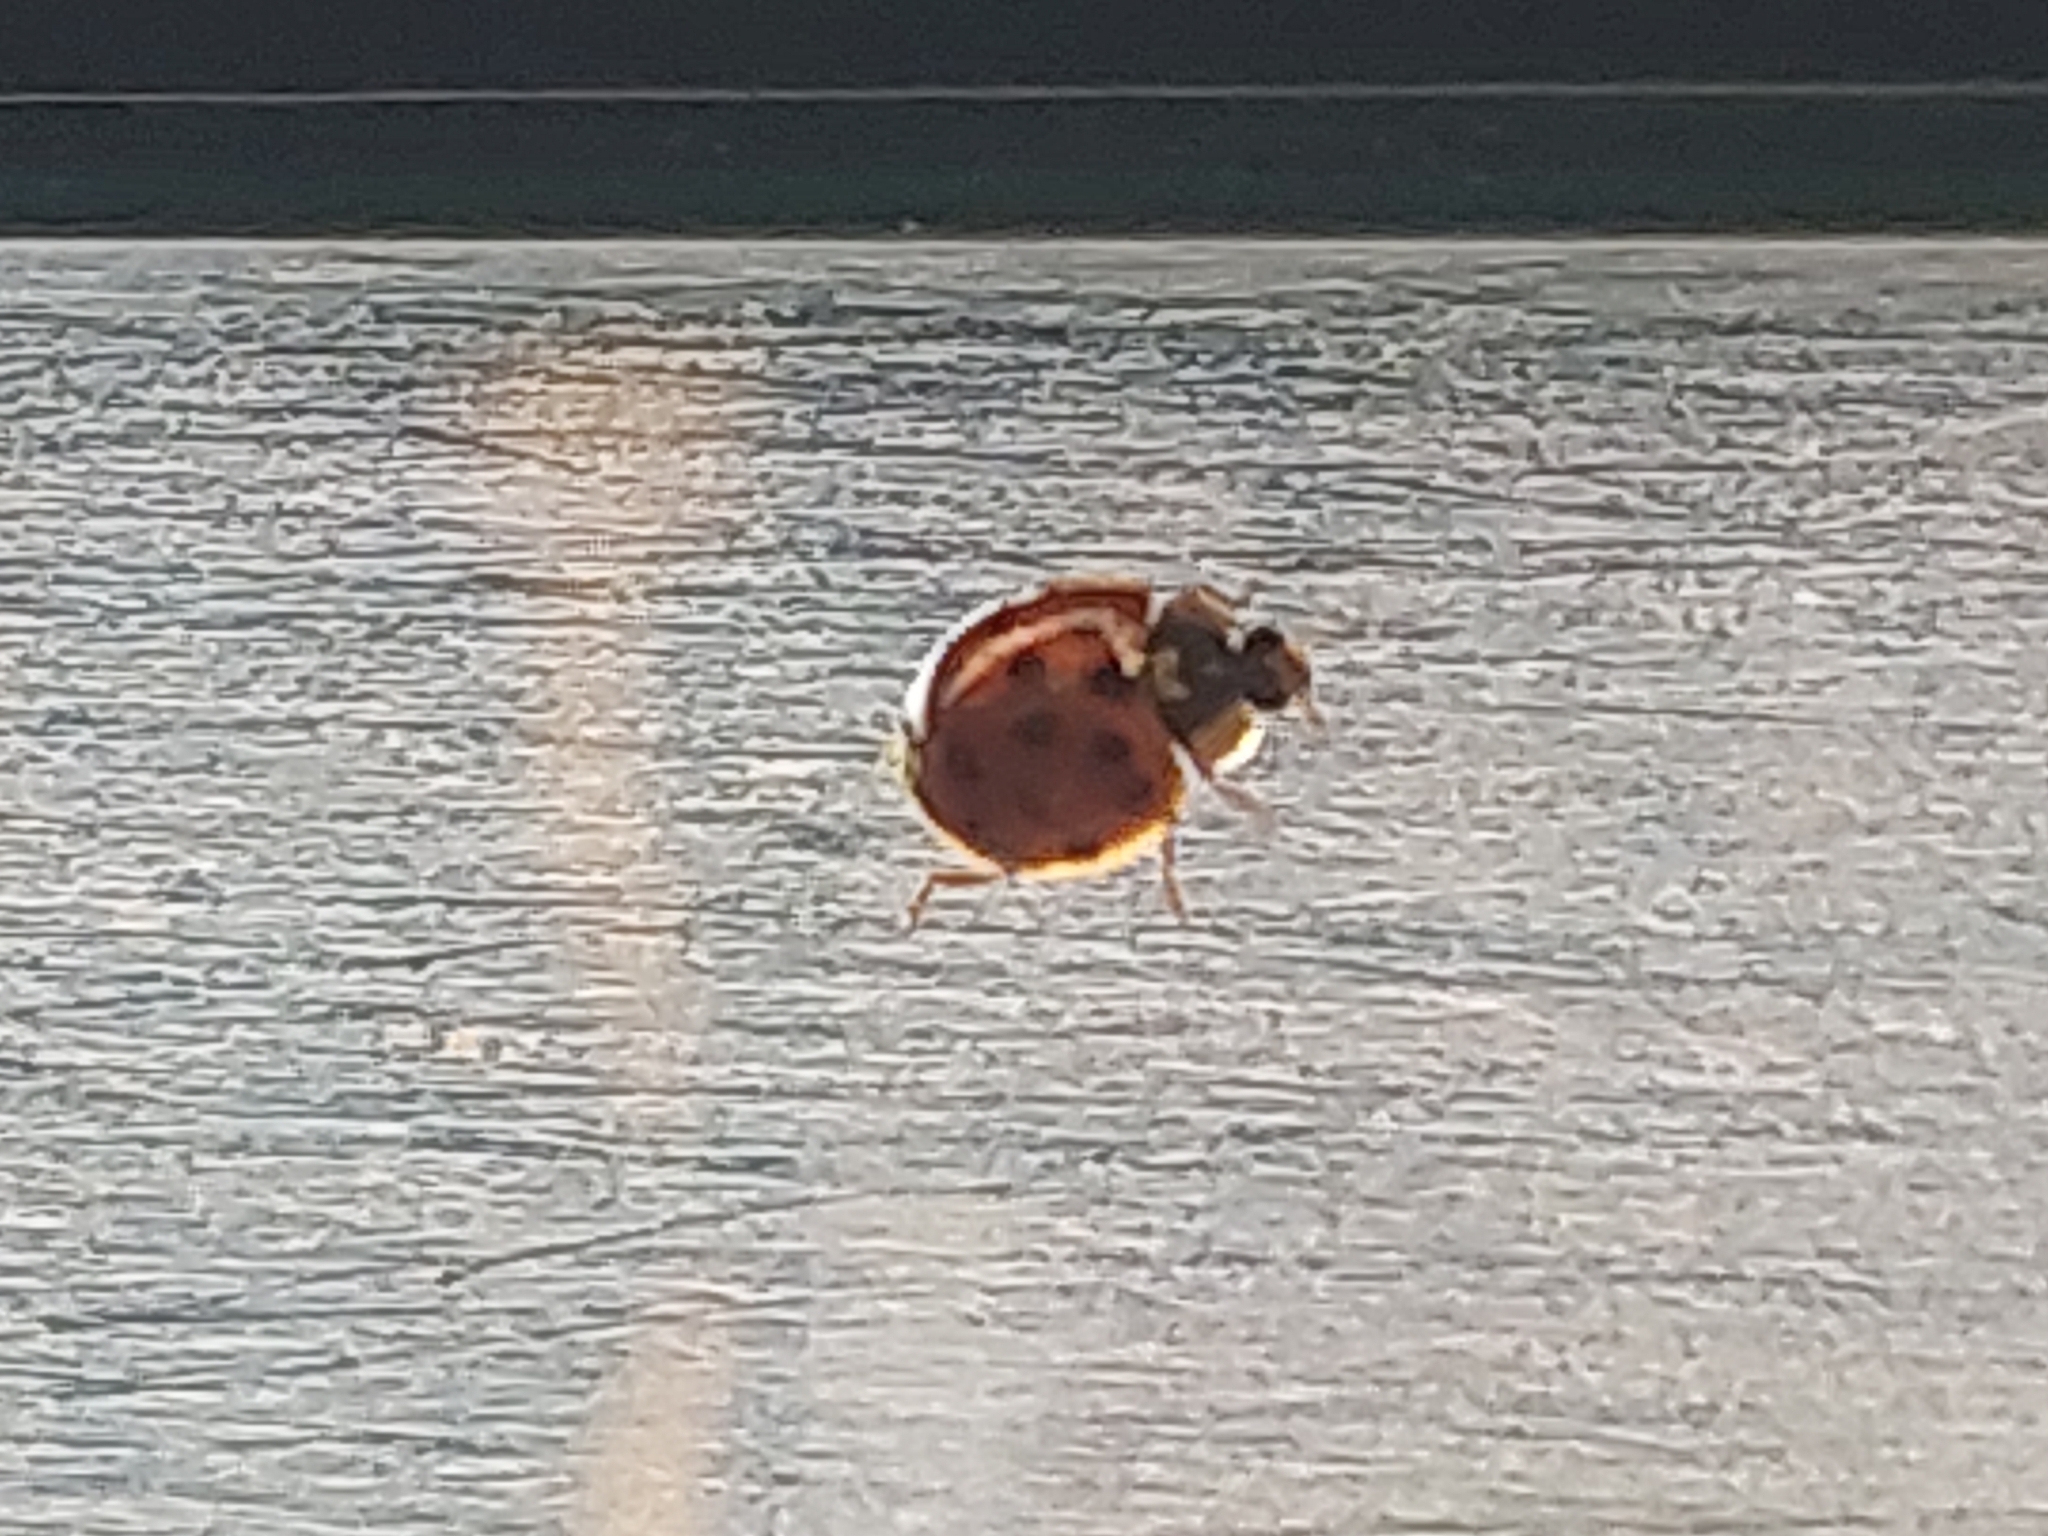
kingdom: Animalia
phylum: Arthropoda
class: Insecta
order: Coleoptera
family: Coccinellidae
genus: Harmonia
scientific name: Harmonia axyridis
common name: Harlequin ladybird
